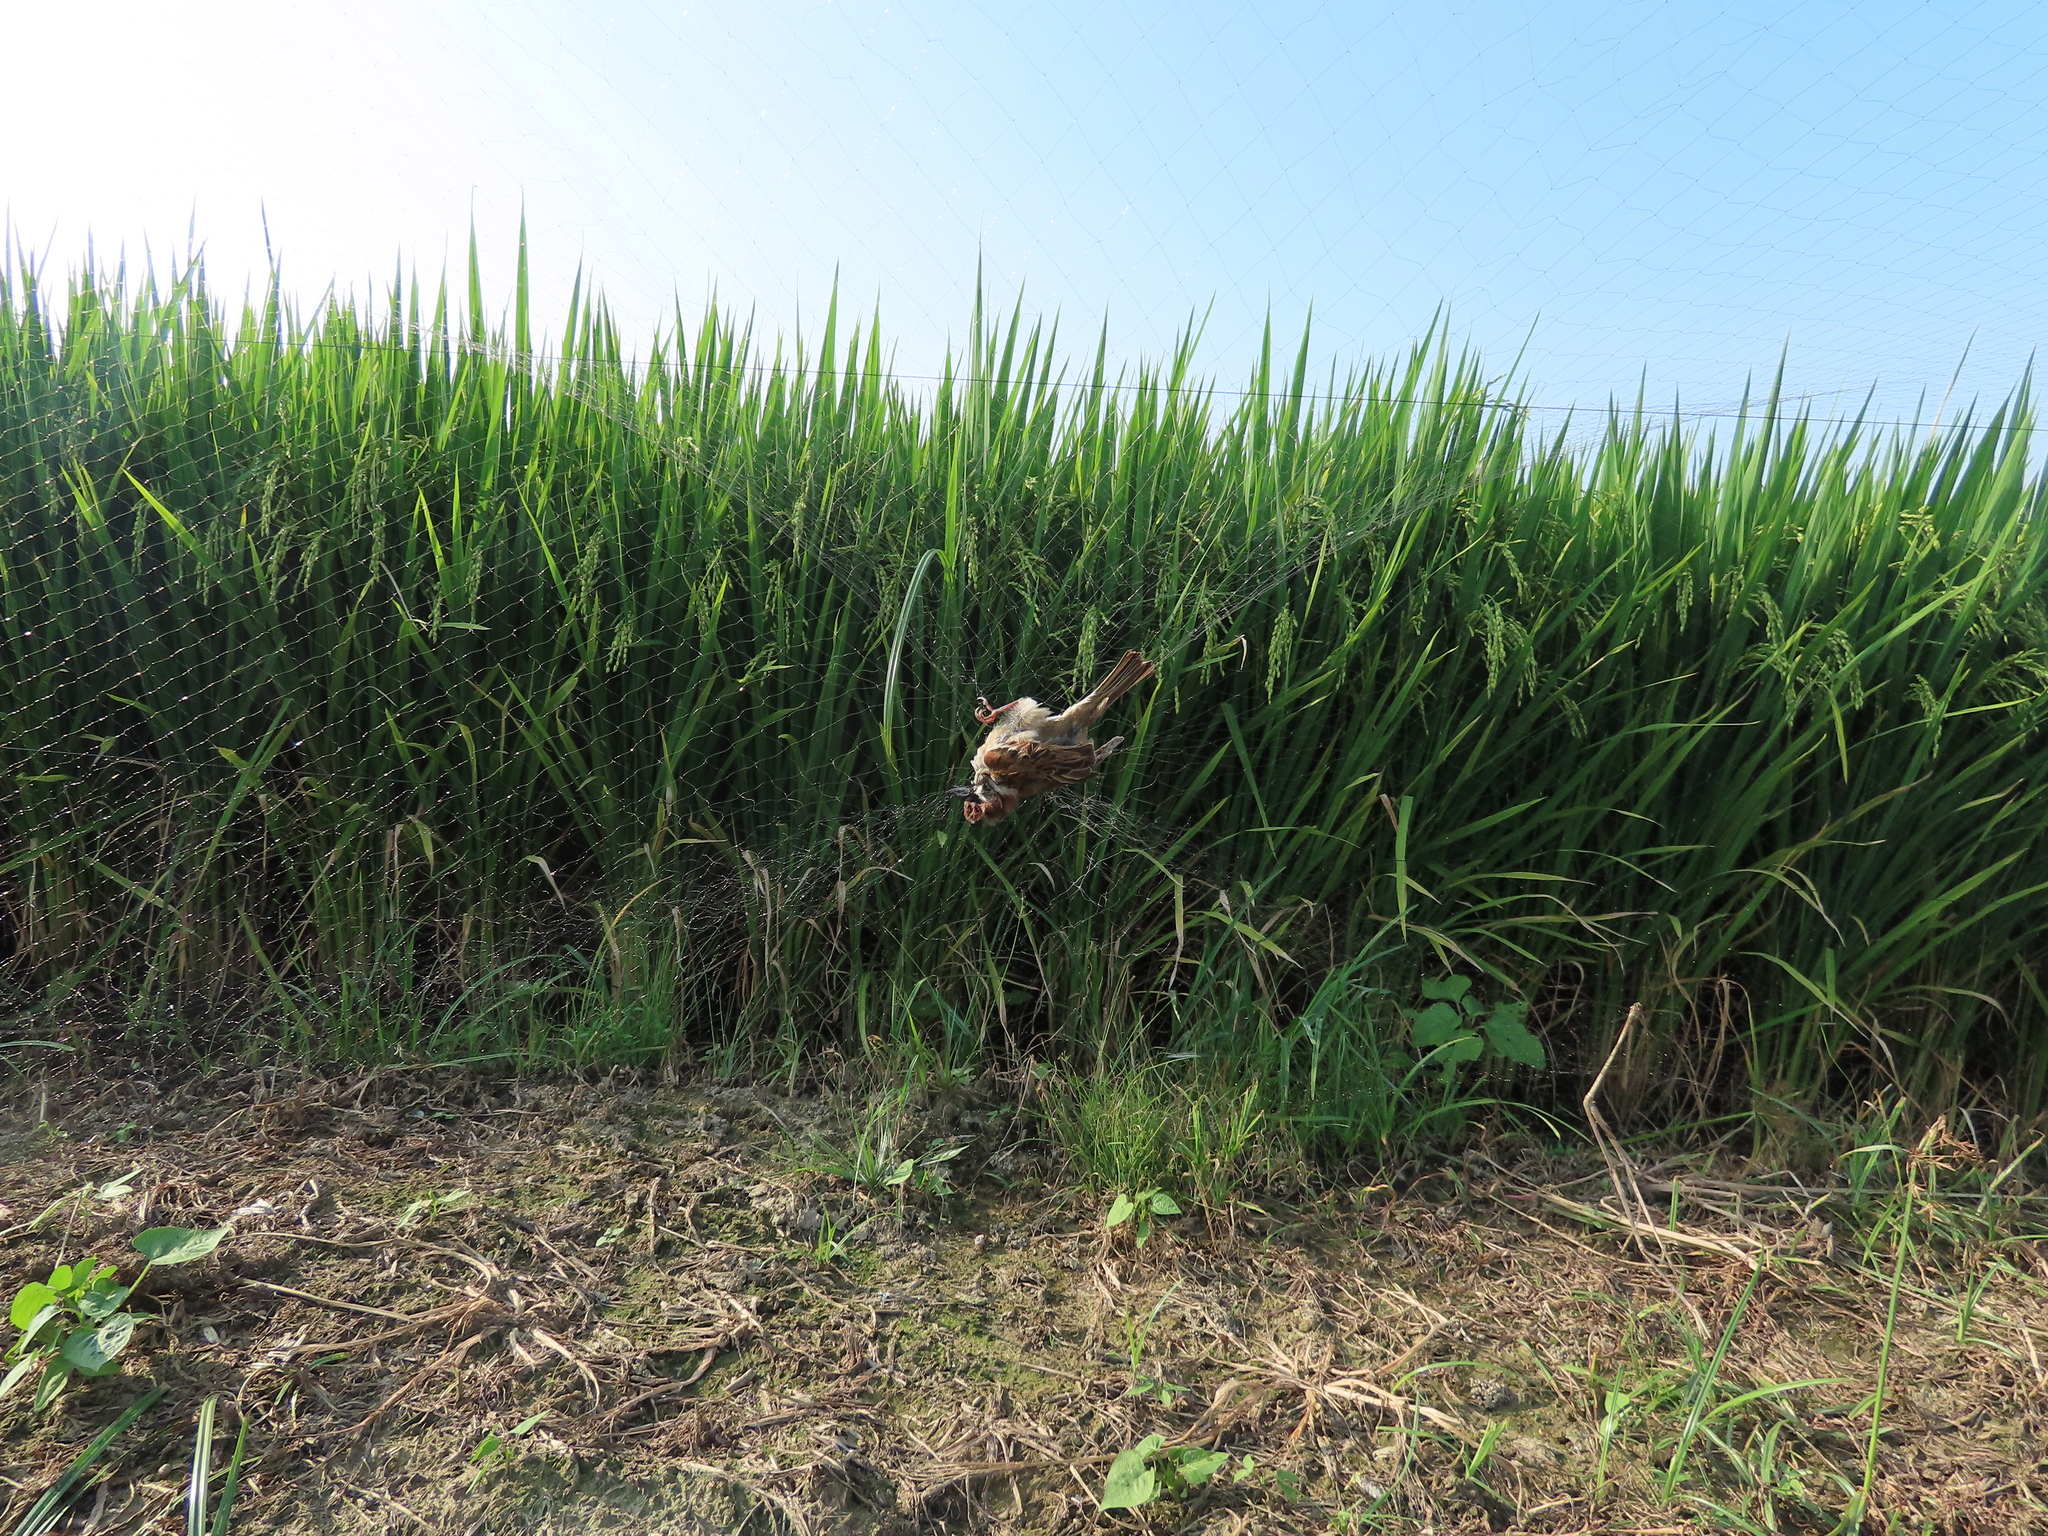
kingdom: Animalia
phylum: Chordata
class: Aves
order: Passeriformes
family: Passeridae
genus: Passer
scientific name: Passer montanus
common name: Eurasian tree sparrow
